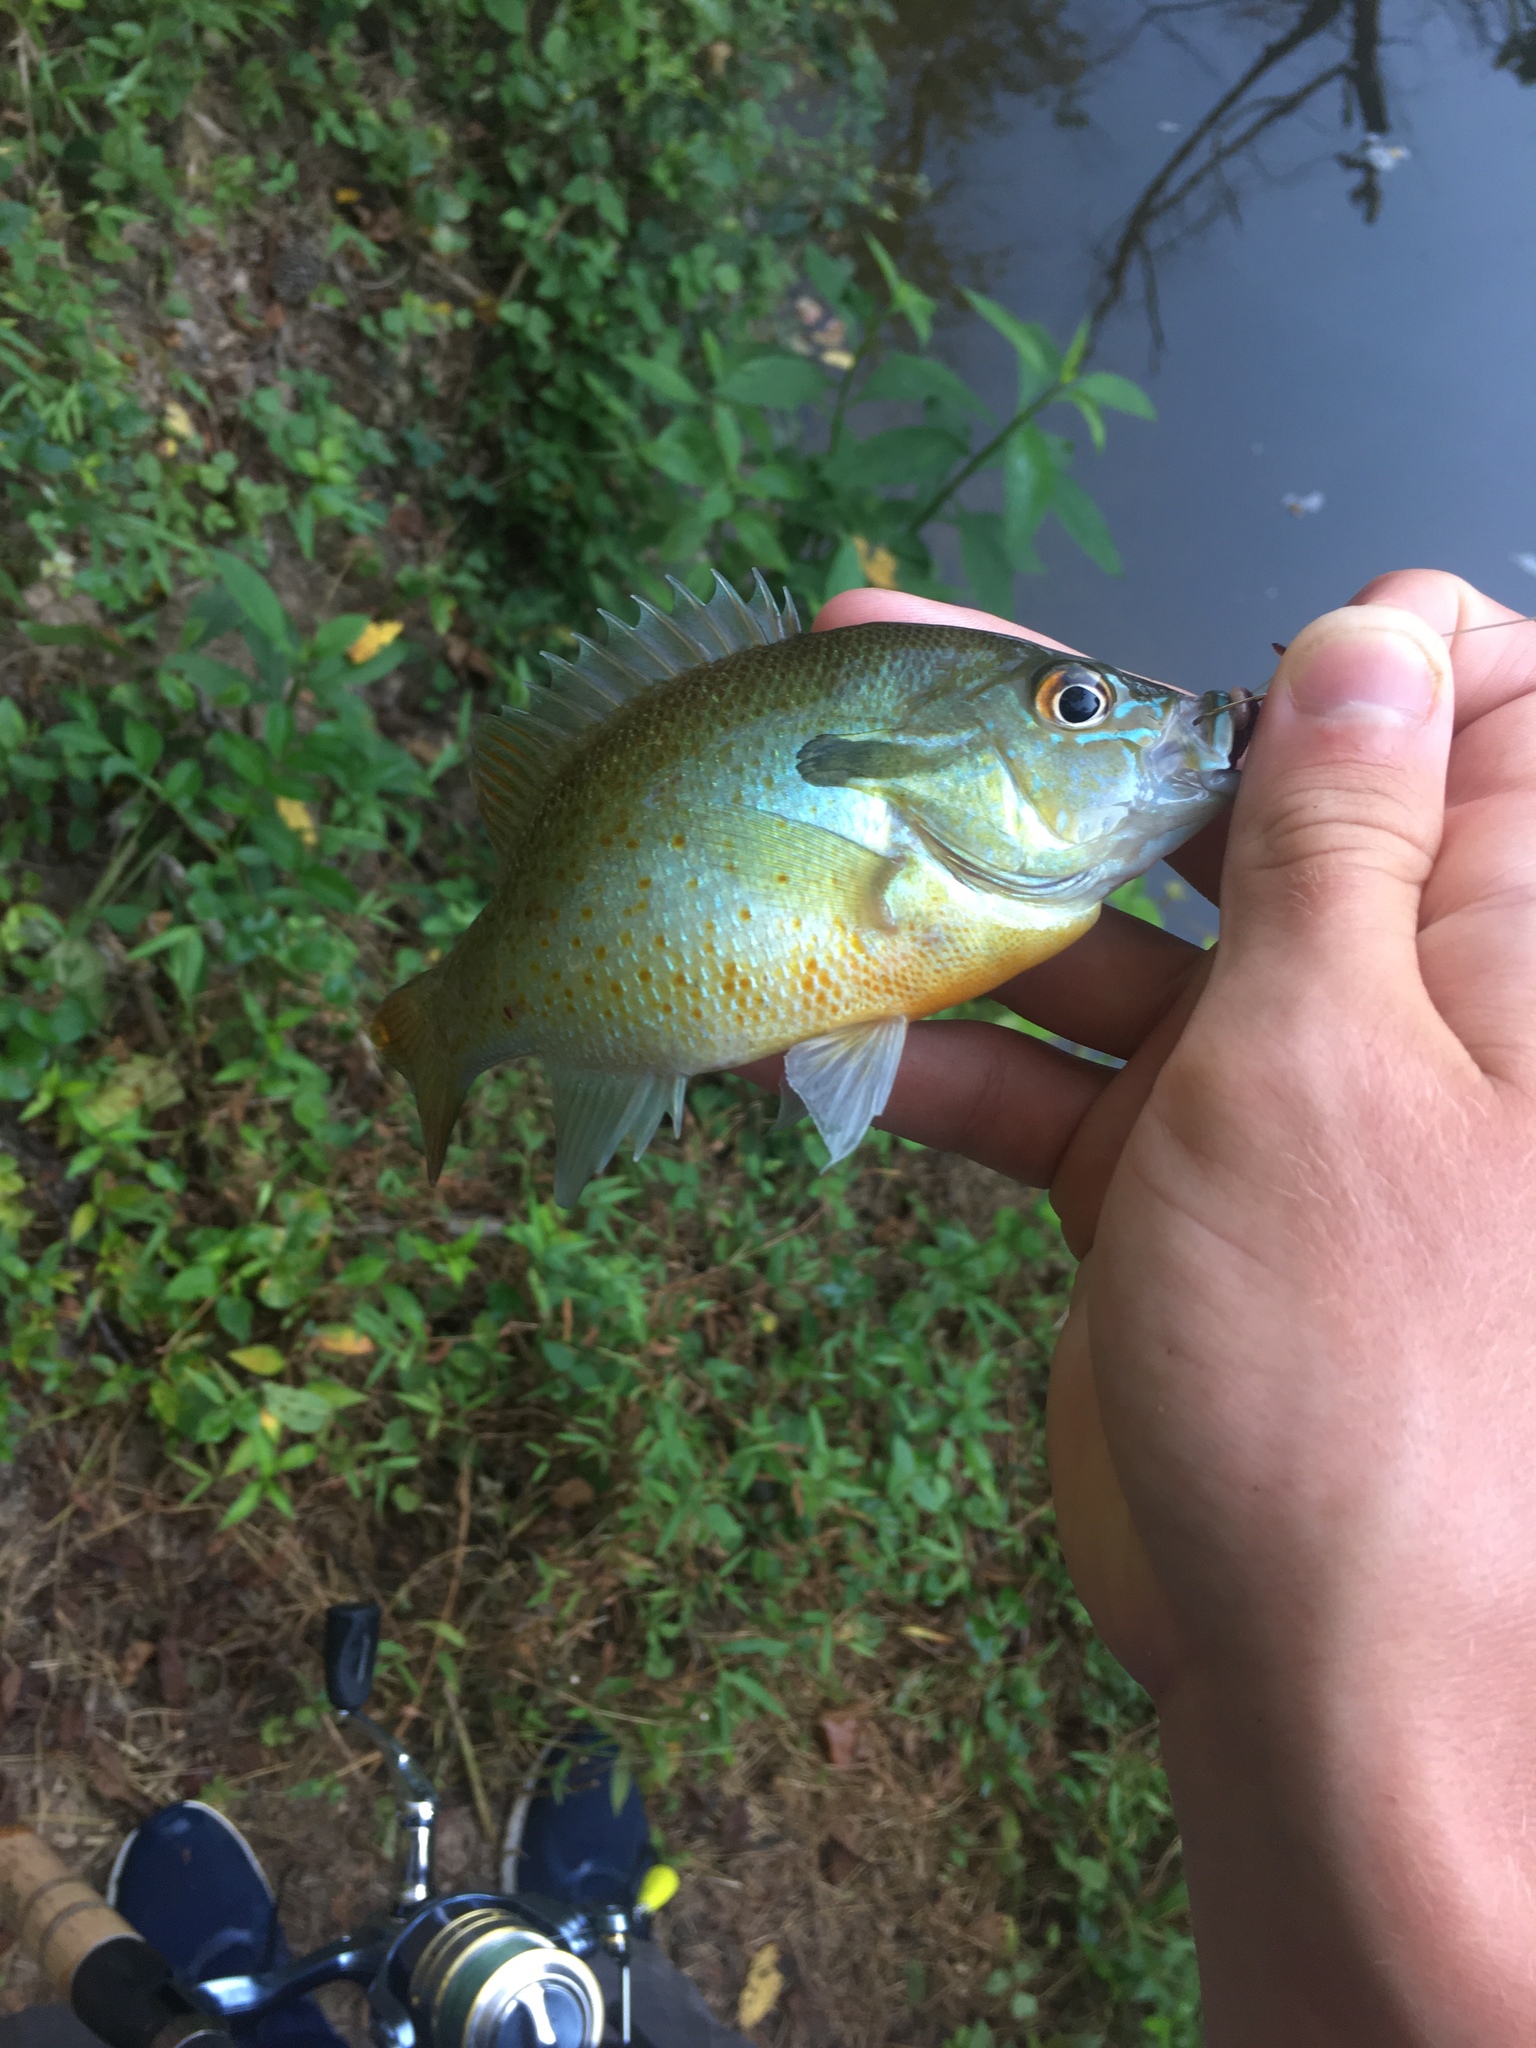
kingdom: Animalia
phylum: Chordata
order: Perciformes
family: Centrarchidae
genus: Lepomis
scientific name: Lepomis auritus
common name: Redbreast sunfish
